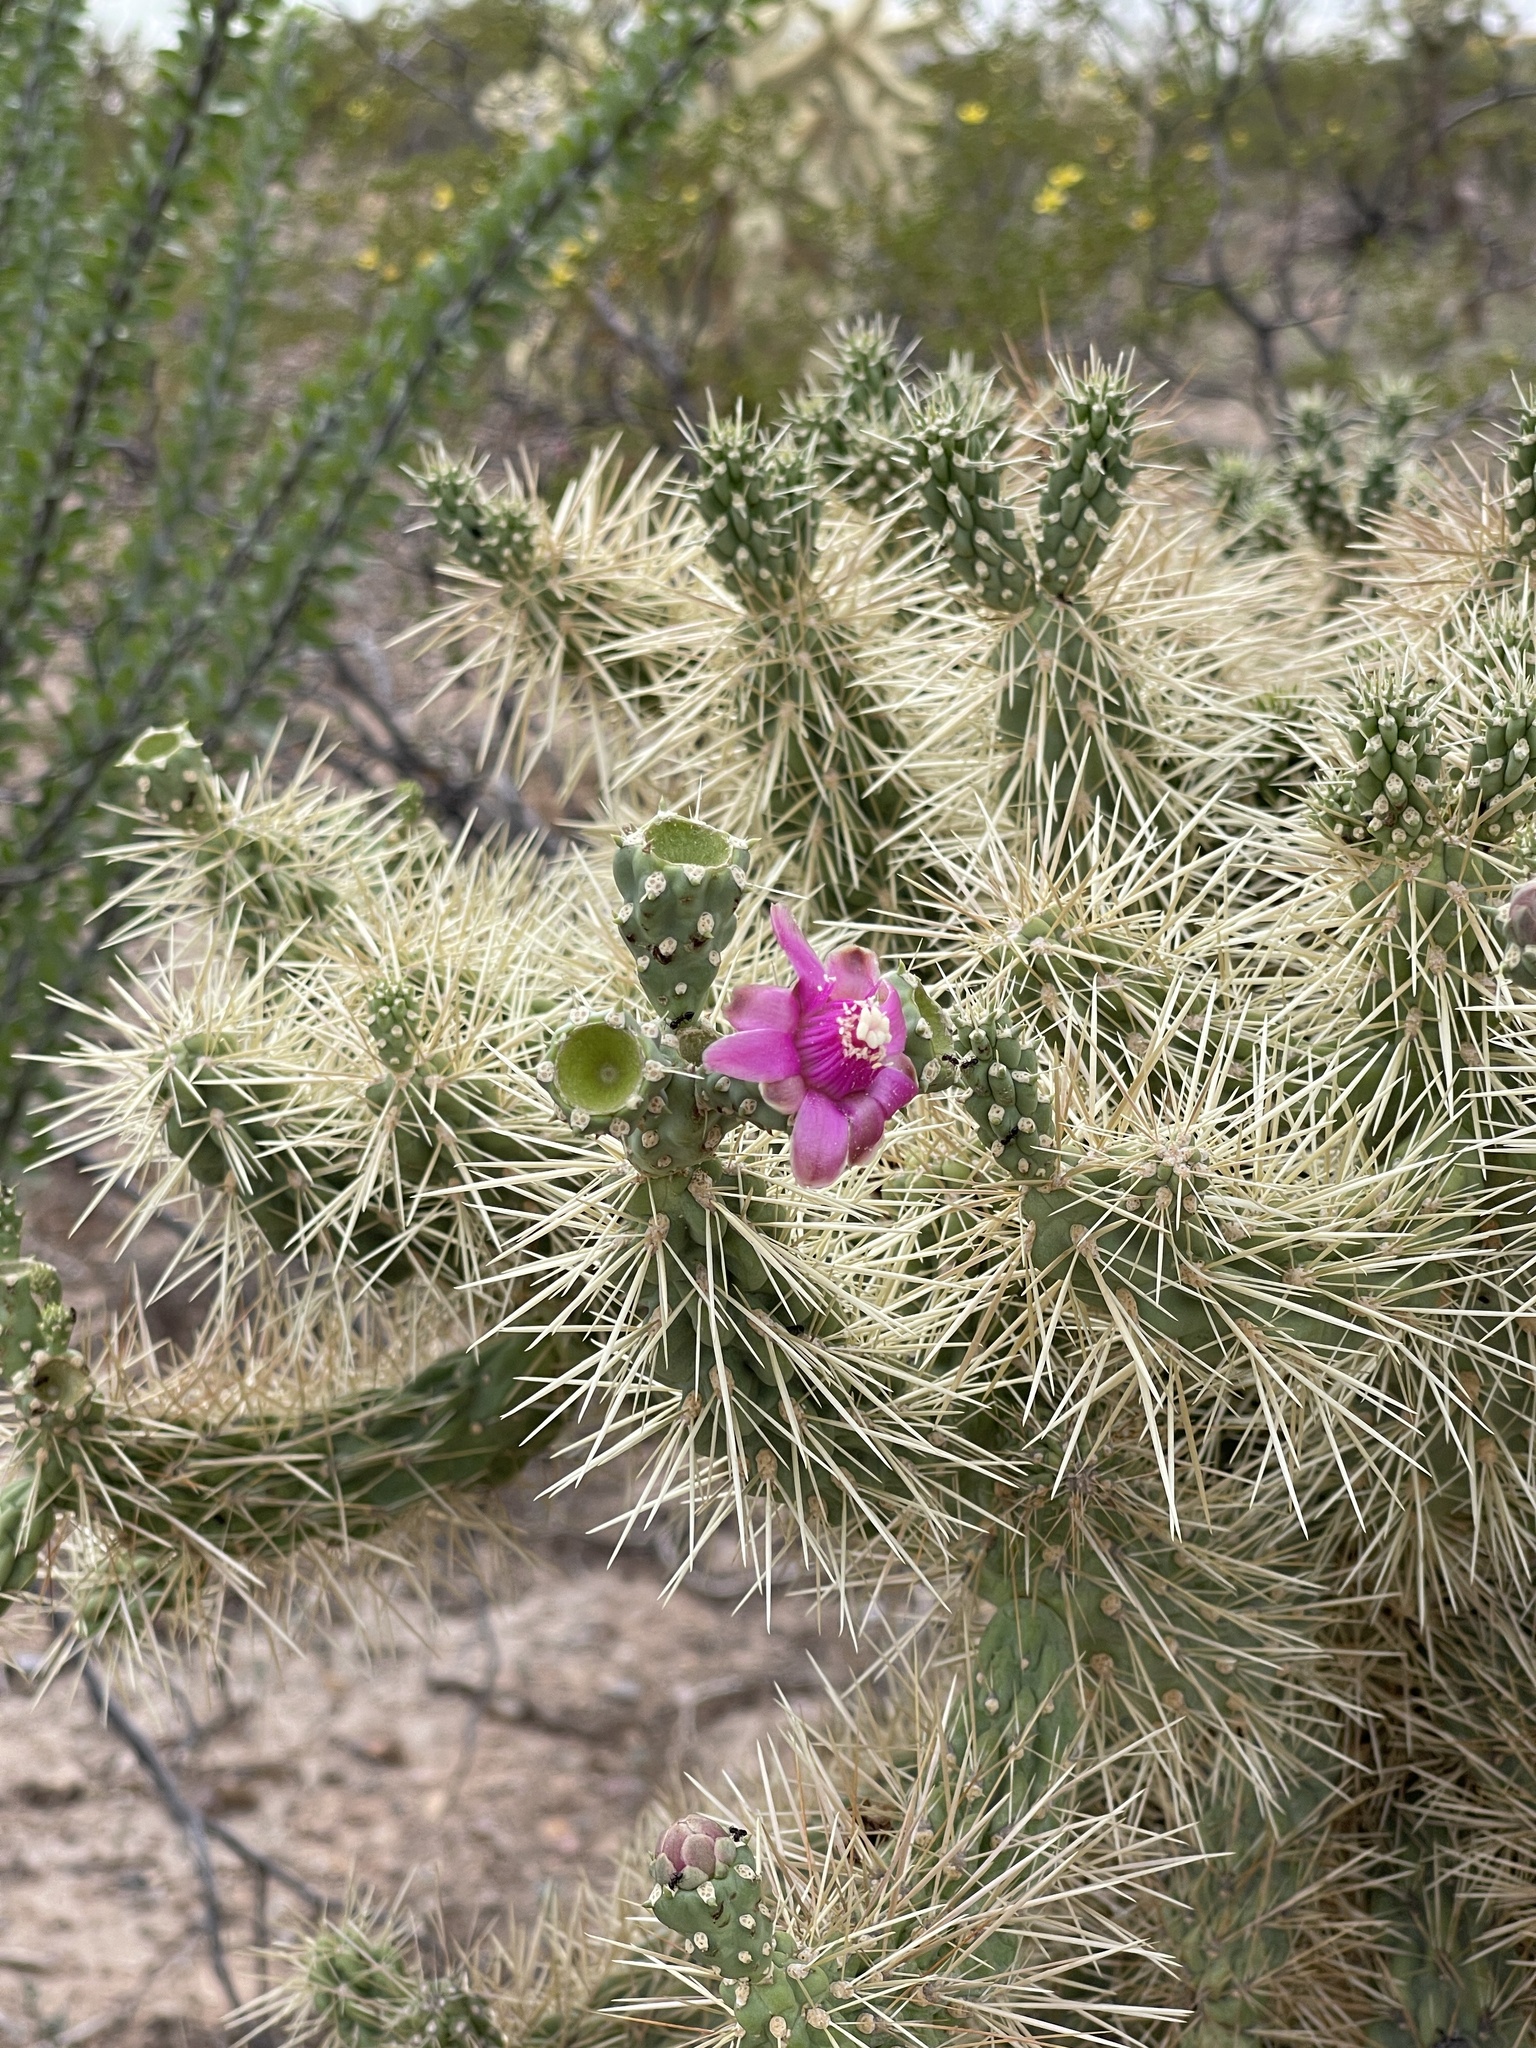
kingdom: Plantae
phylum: Tracheophyta
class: Magnoliopsida
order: Caryophyllales
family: Cactaceae
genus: Cylindropuntia
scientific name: Cylindropuntia fulgida
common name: Jumping cholla
